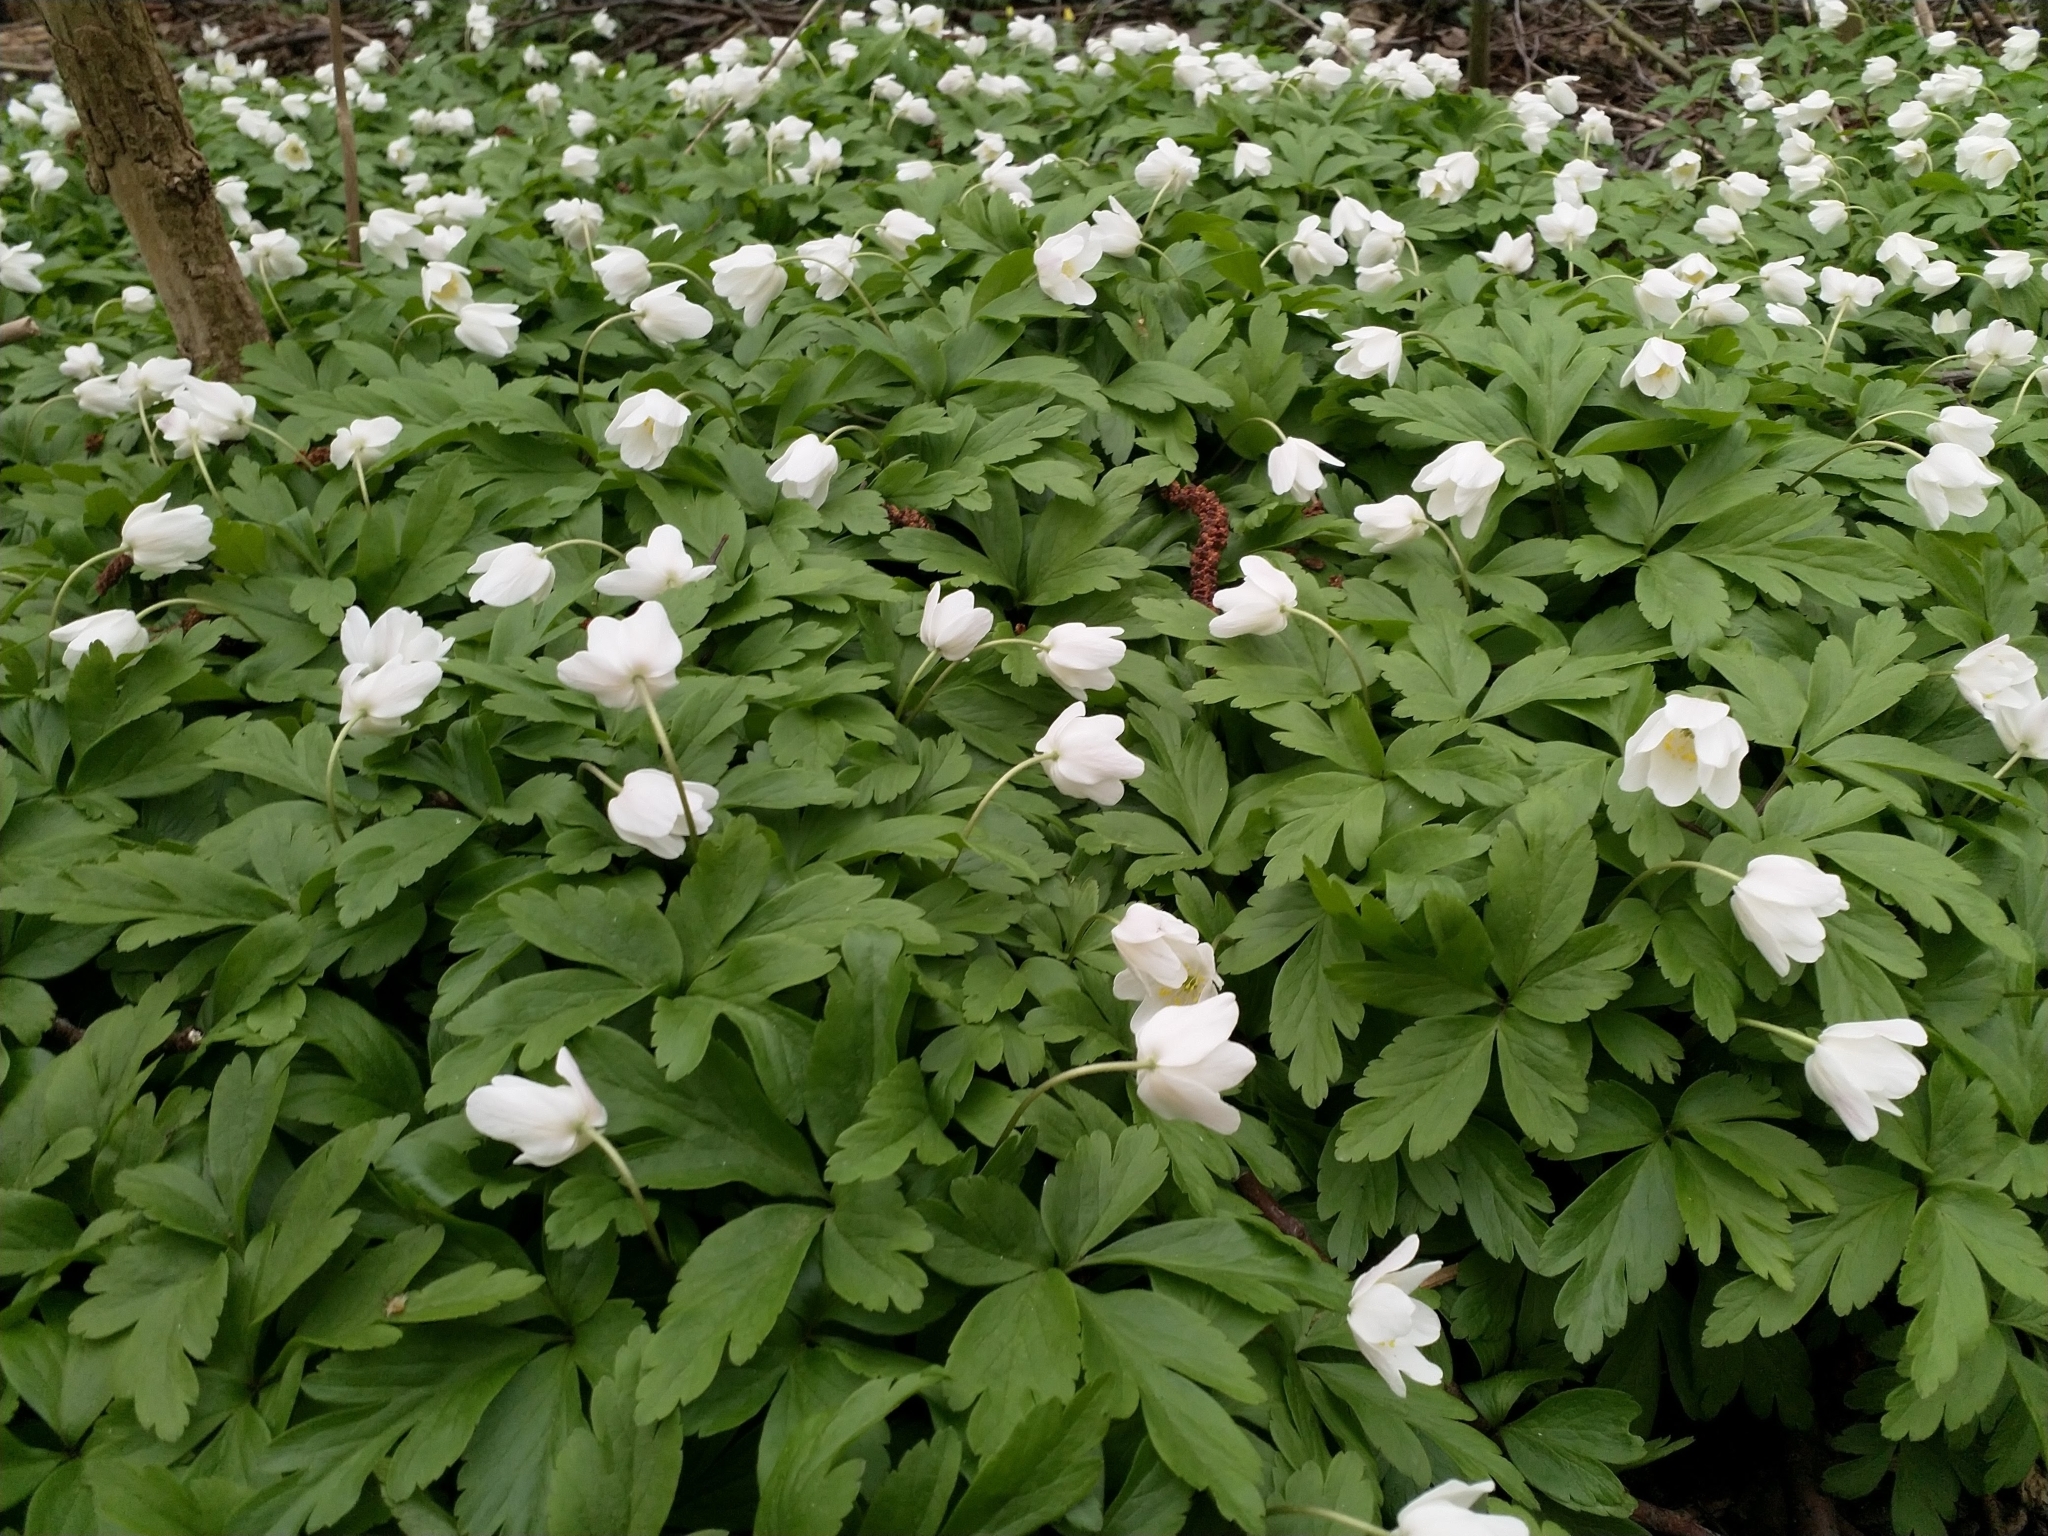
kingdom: Plantae
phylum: Tracheophyta
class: Magnoliopsida
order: Ranunculales
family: Ranunculaceae
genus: Anemone
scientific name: Anemone nemorosa
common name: Wood anemone
